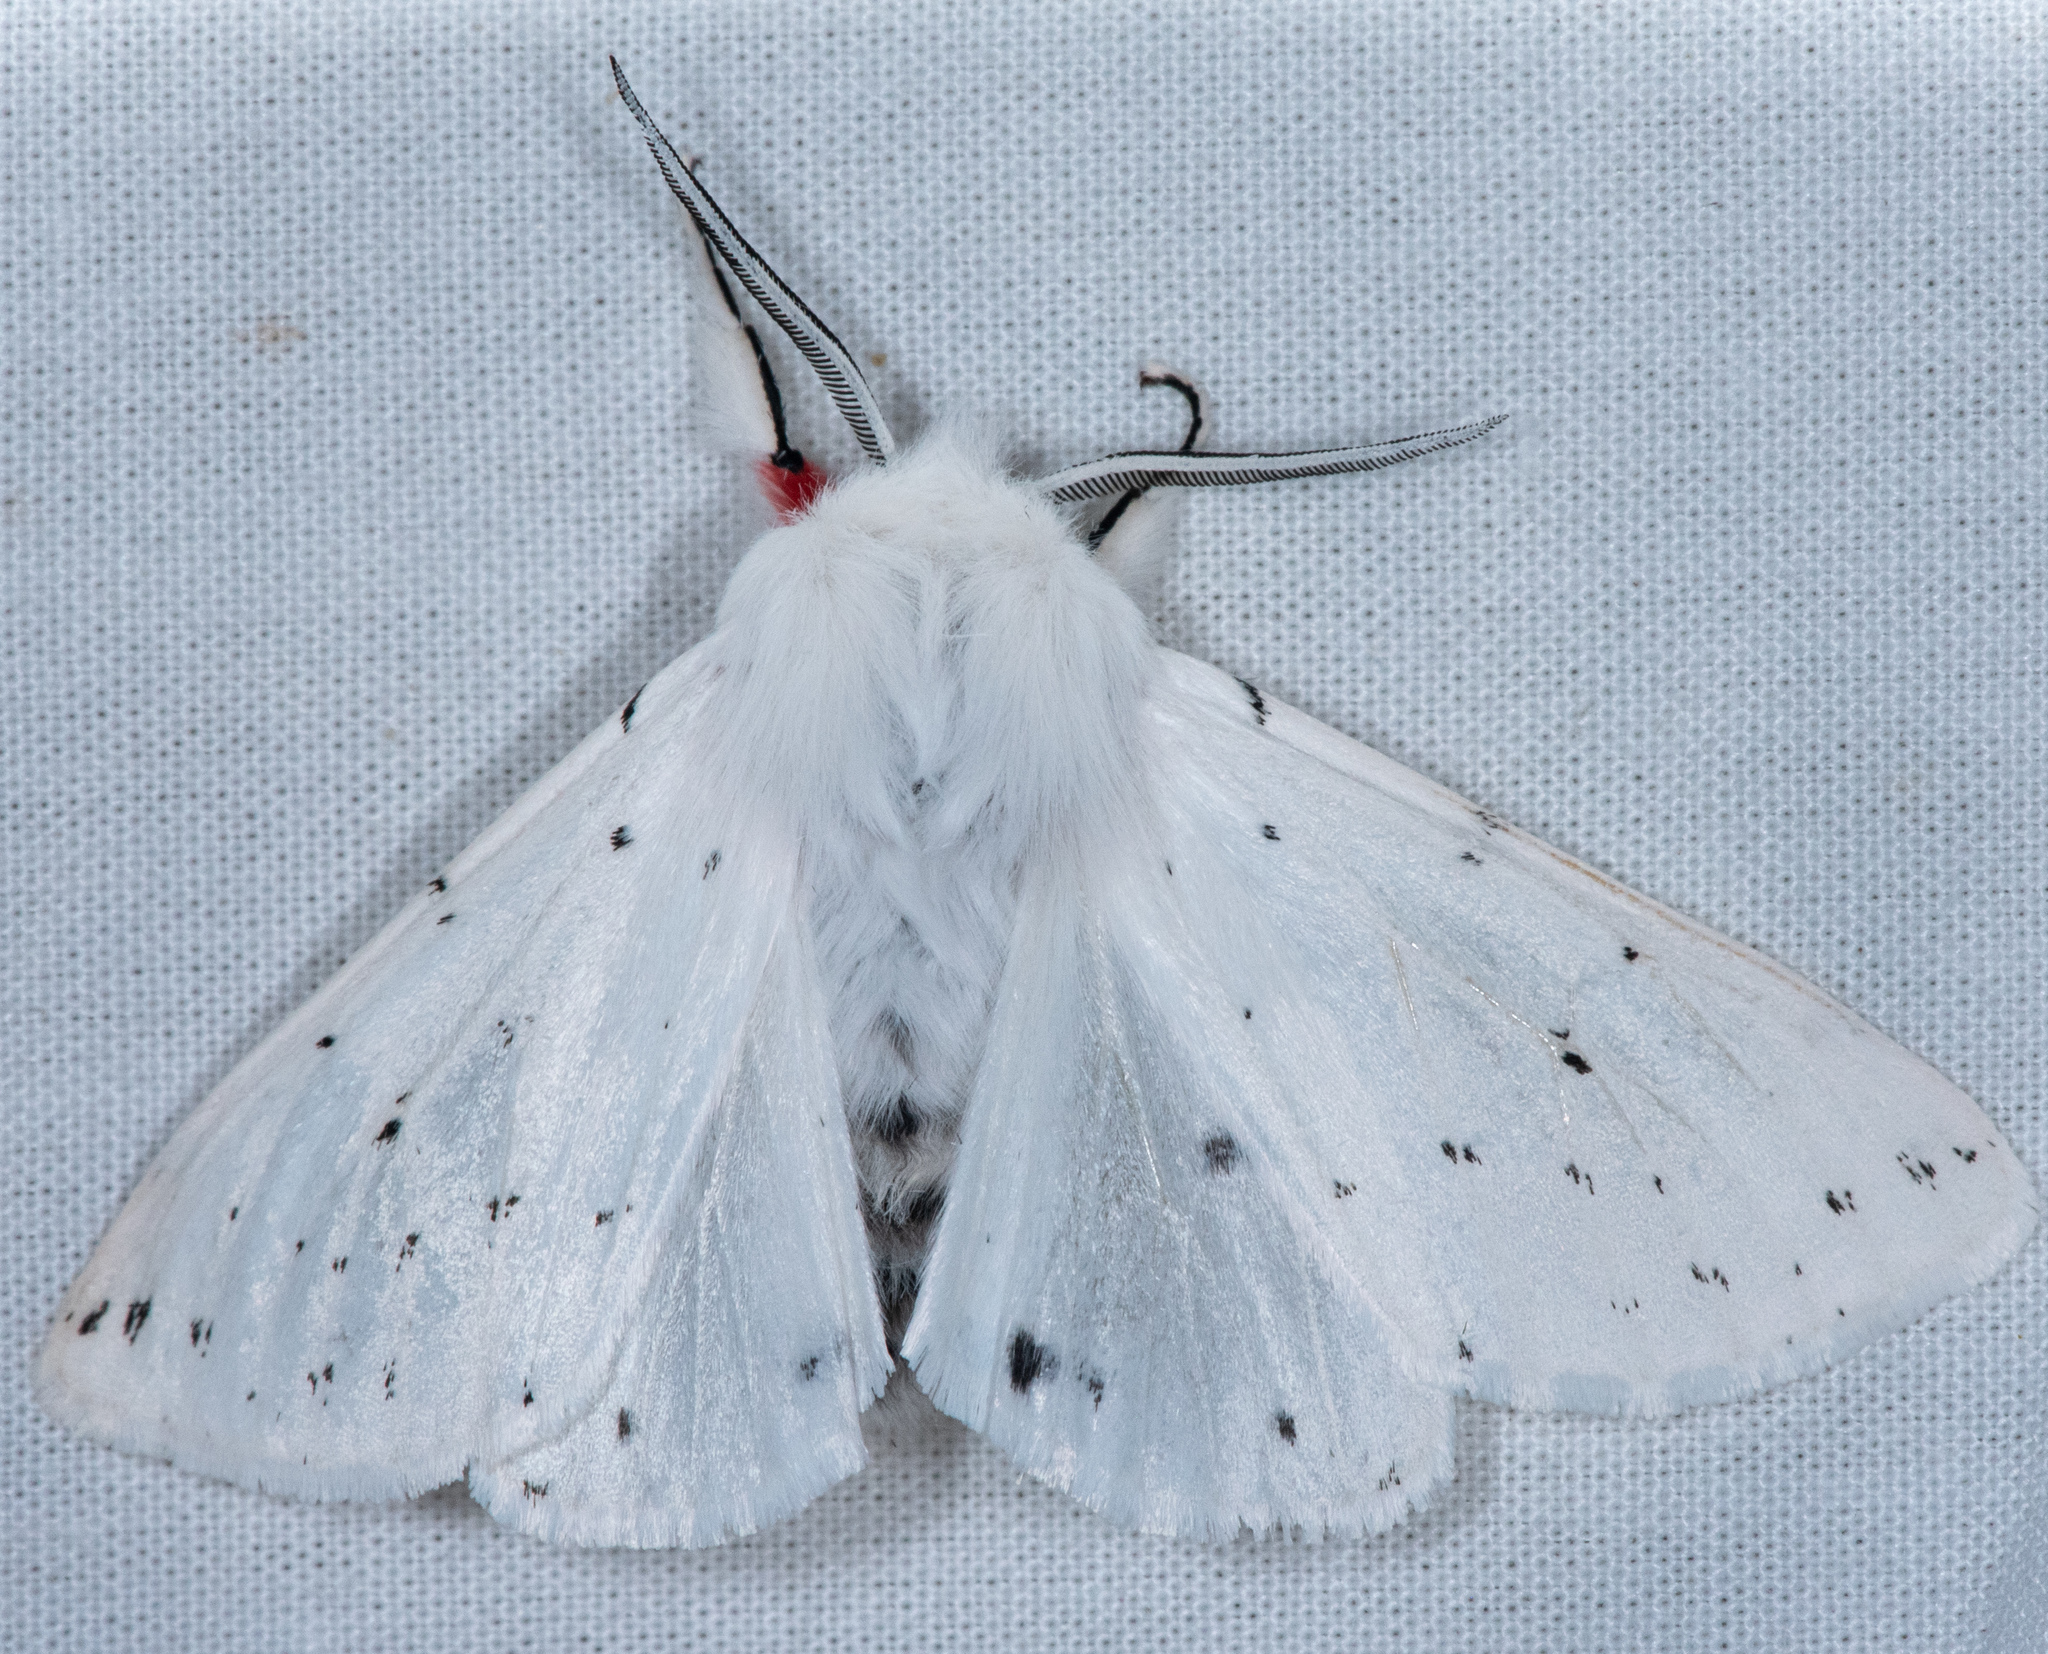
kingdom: Animalia
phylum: Arthropoda
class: Insecta
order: Lepidoptera
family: Erebidae
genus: Spilosoma
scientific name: Spilosoma vestalis
